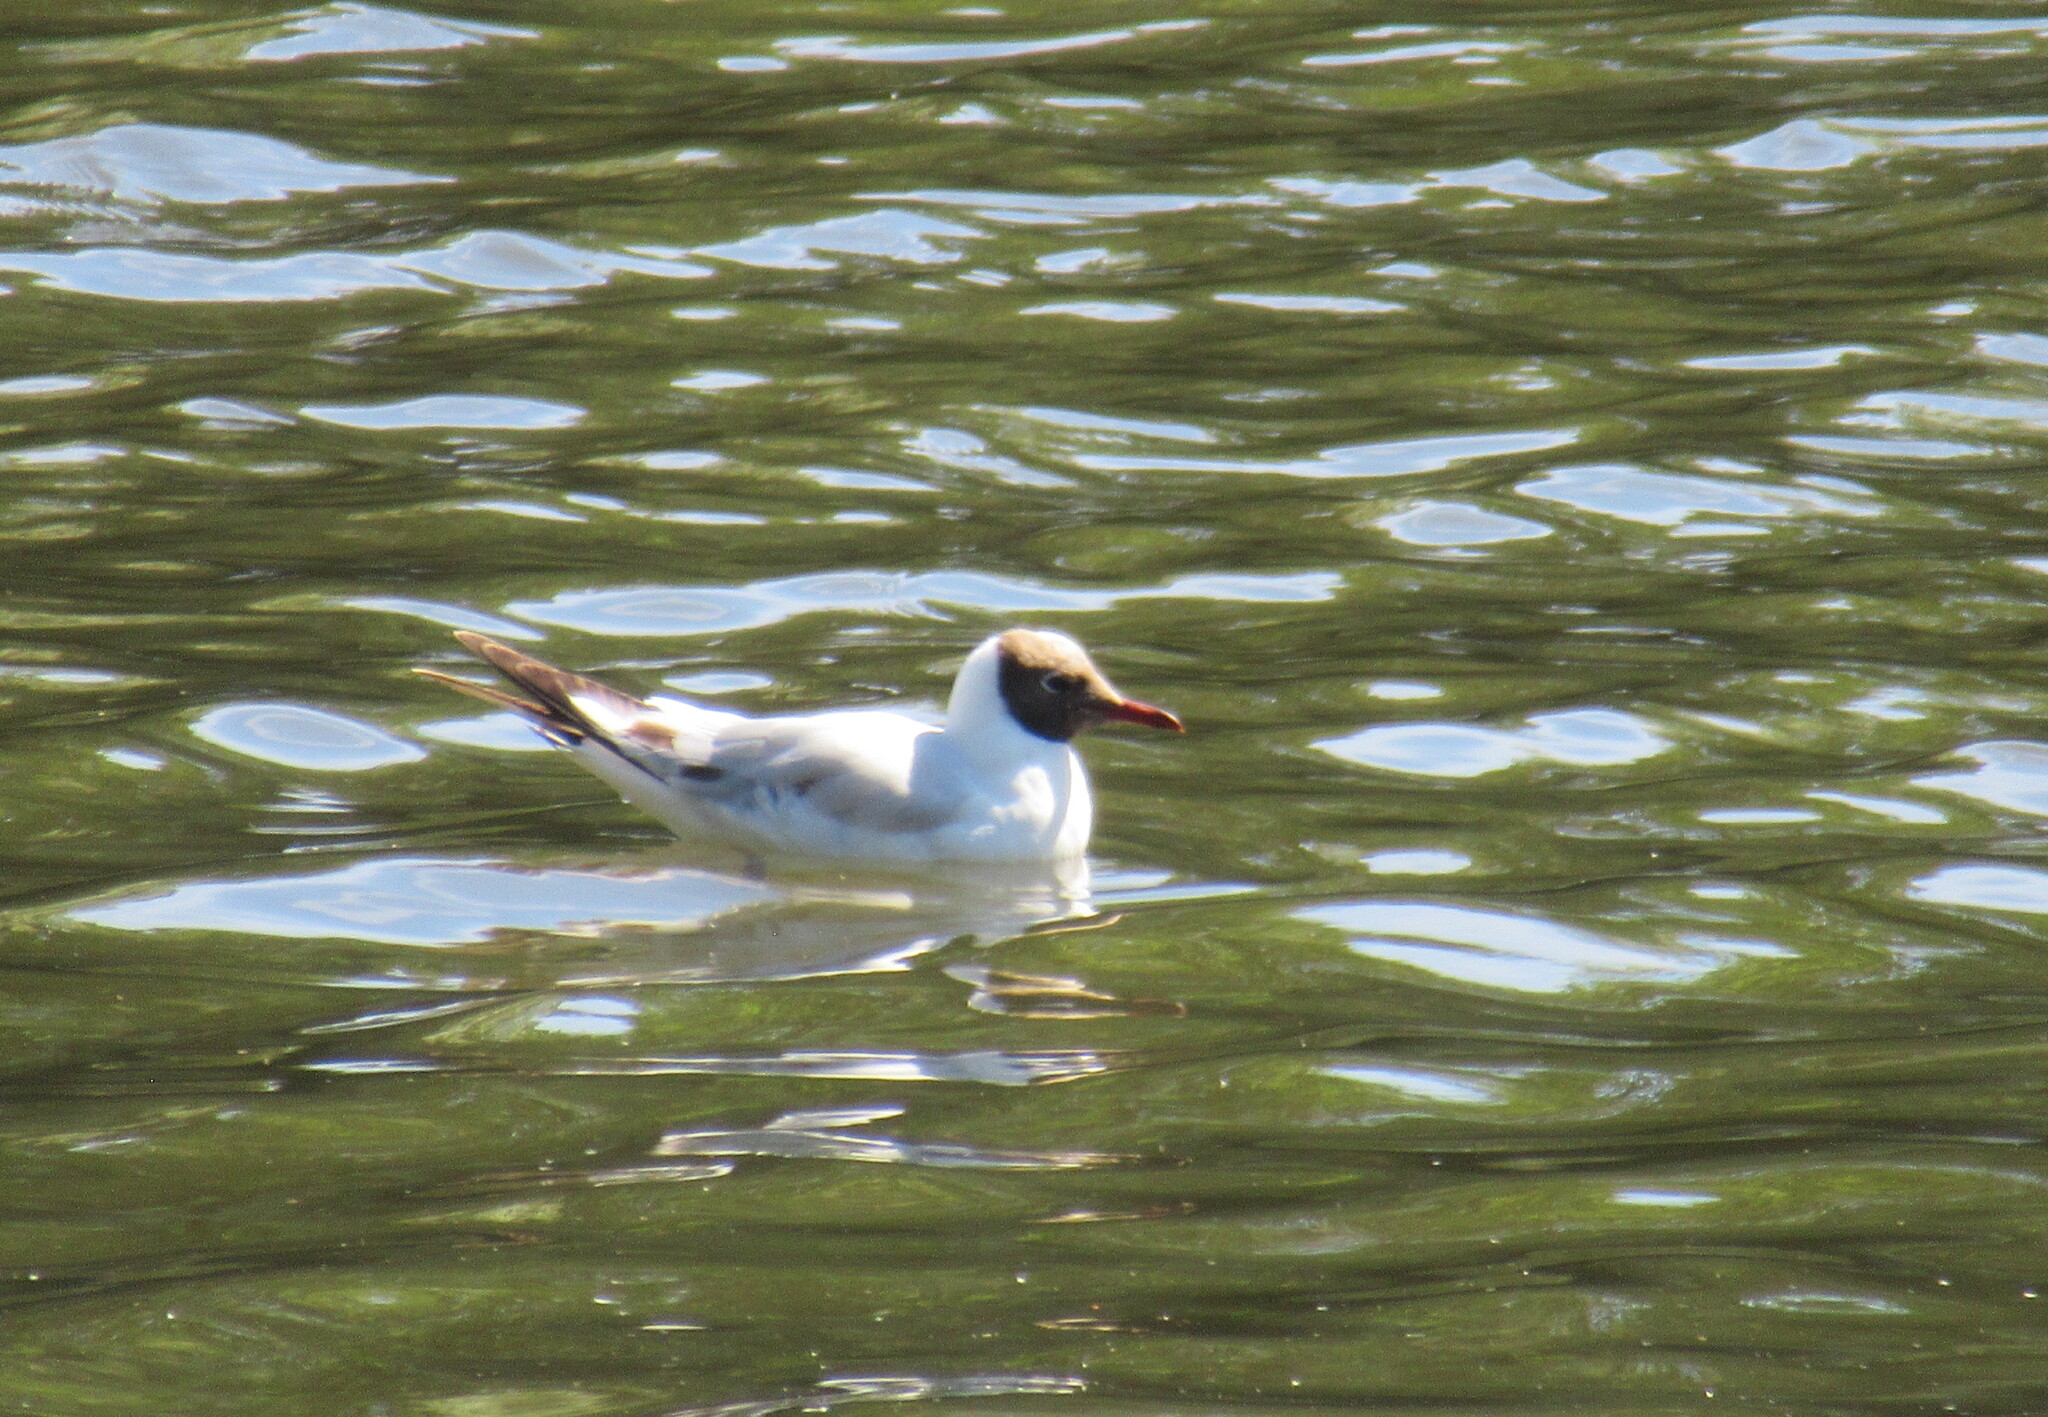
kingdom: Animalia
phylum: Chordata
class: Aves
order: Charadriiformes
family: Laridae
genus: Chroicocephalus
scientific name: Chroicocephalus ridibundus
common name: Black-headed gull
